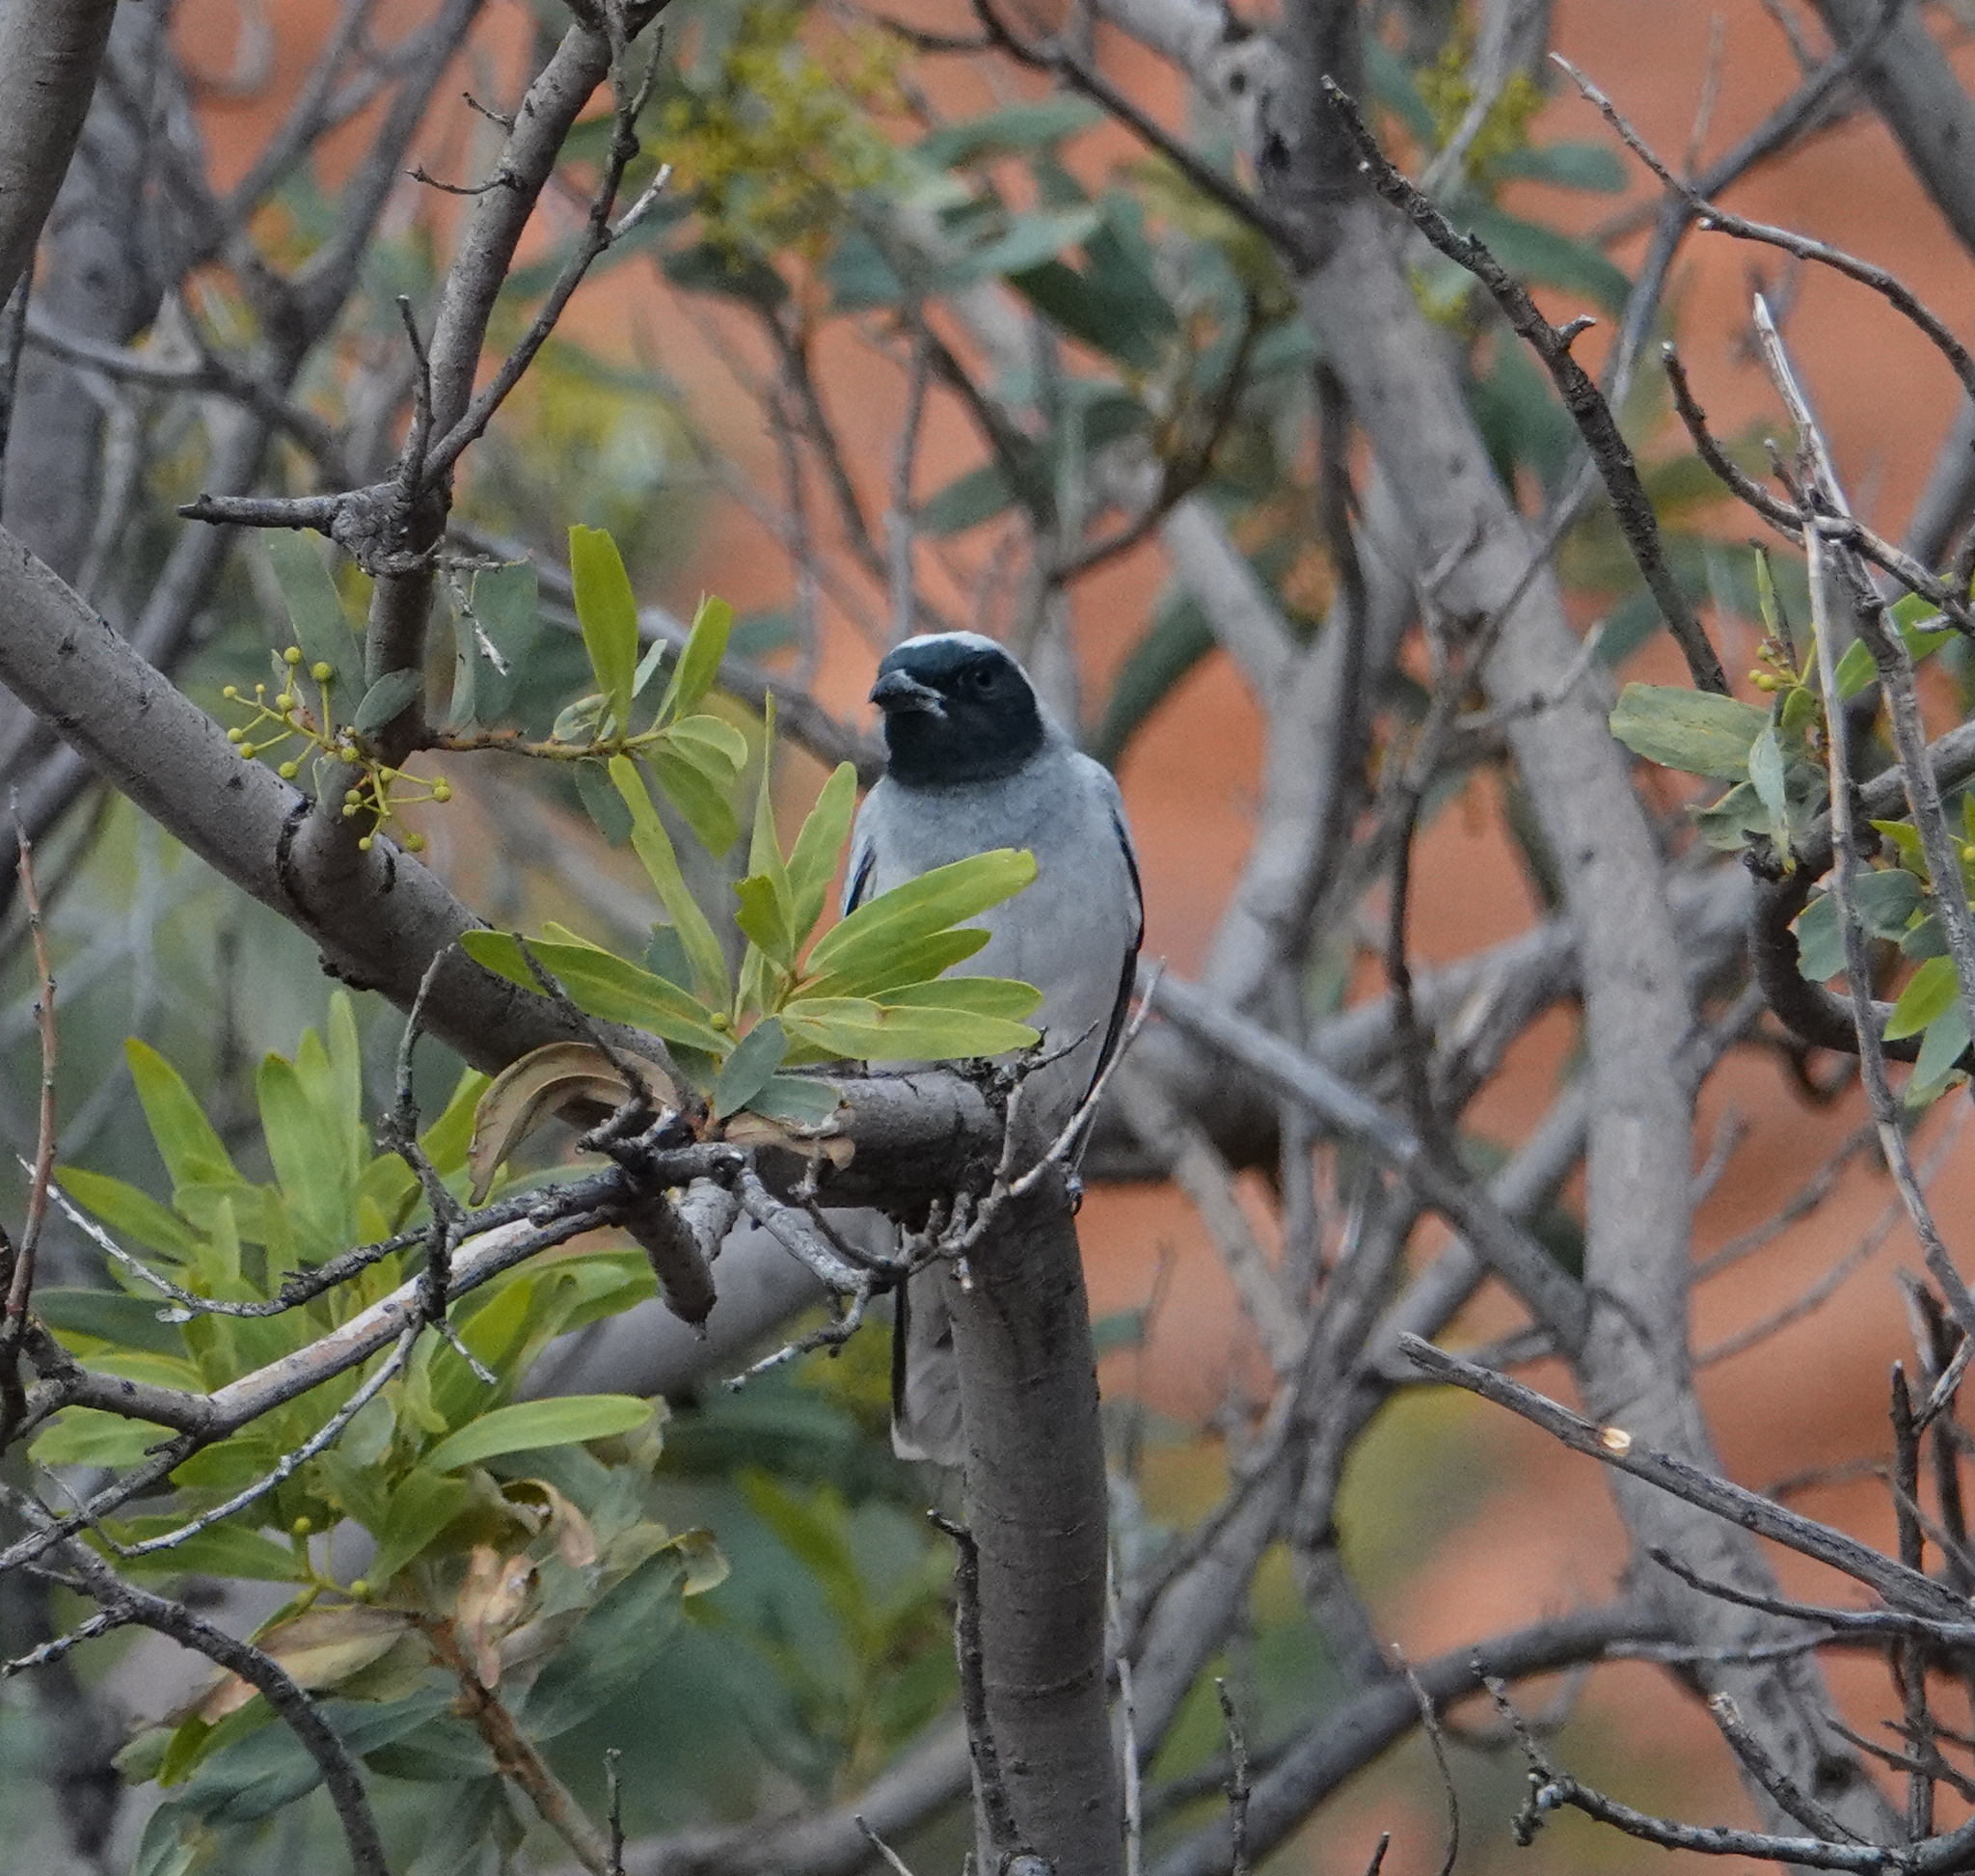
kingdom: Animalia
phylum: Chordata
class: Aves
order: Passeriformes
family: Campephagidae
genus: Coracina
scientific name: Coracina novaehollandiae
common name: Black-faced cuckooshrike
